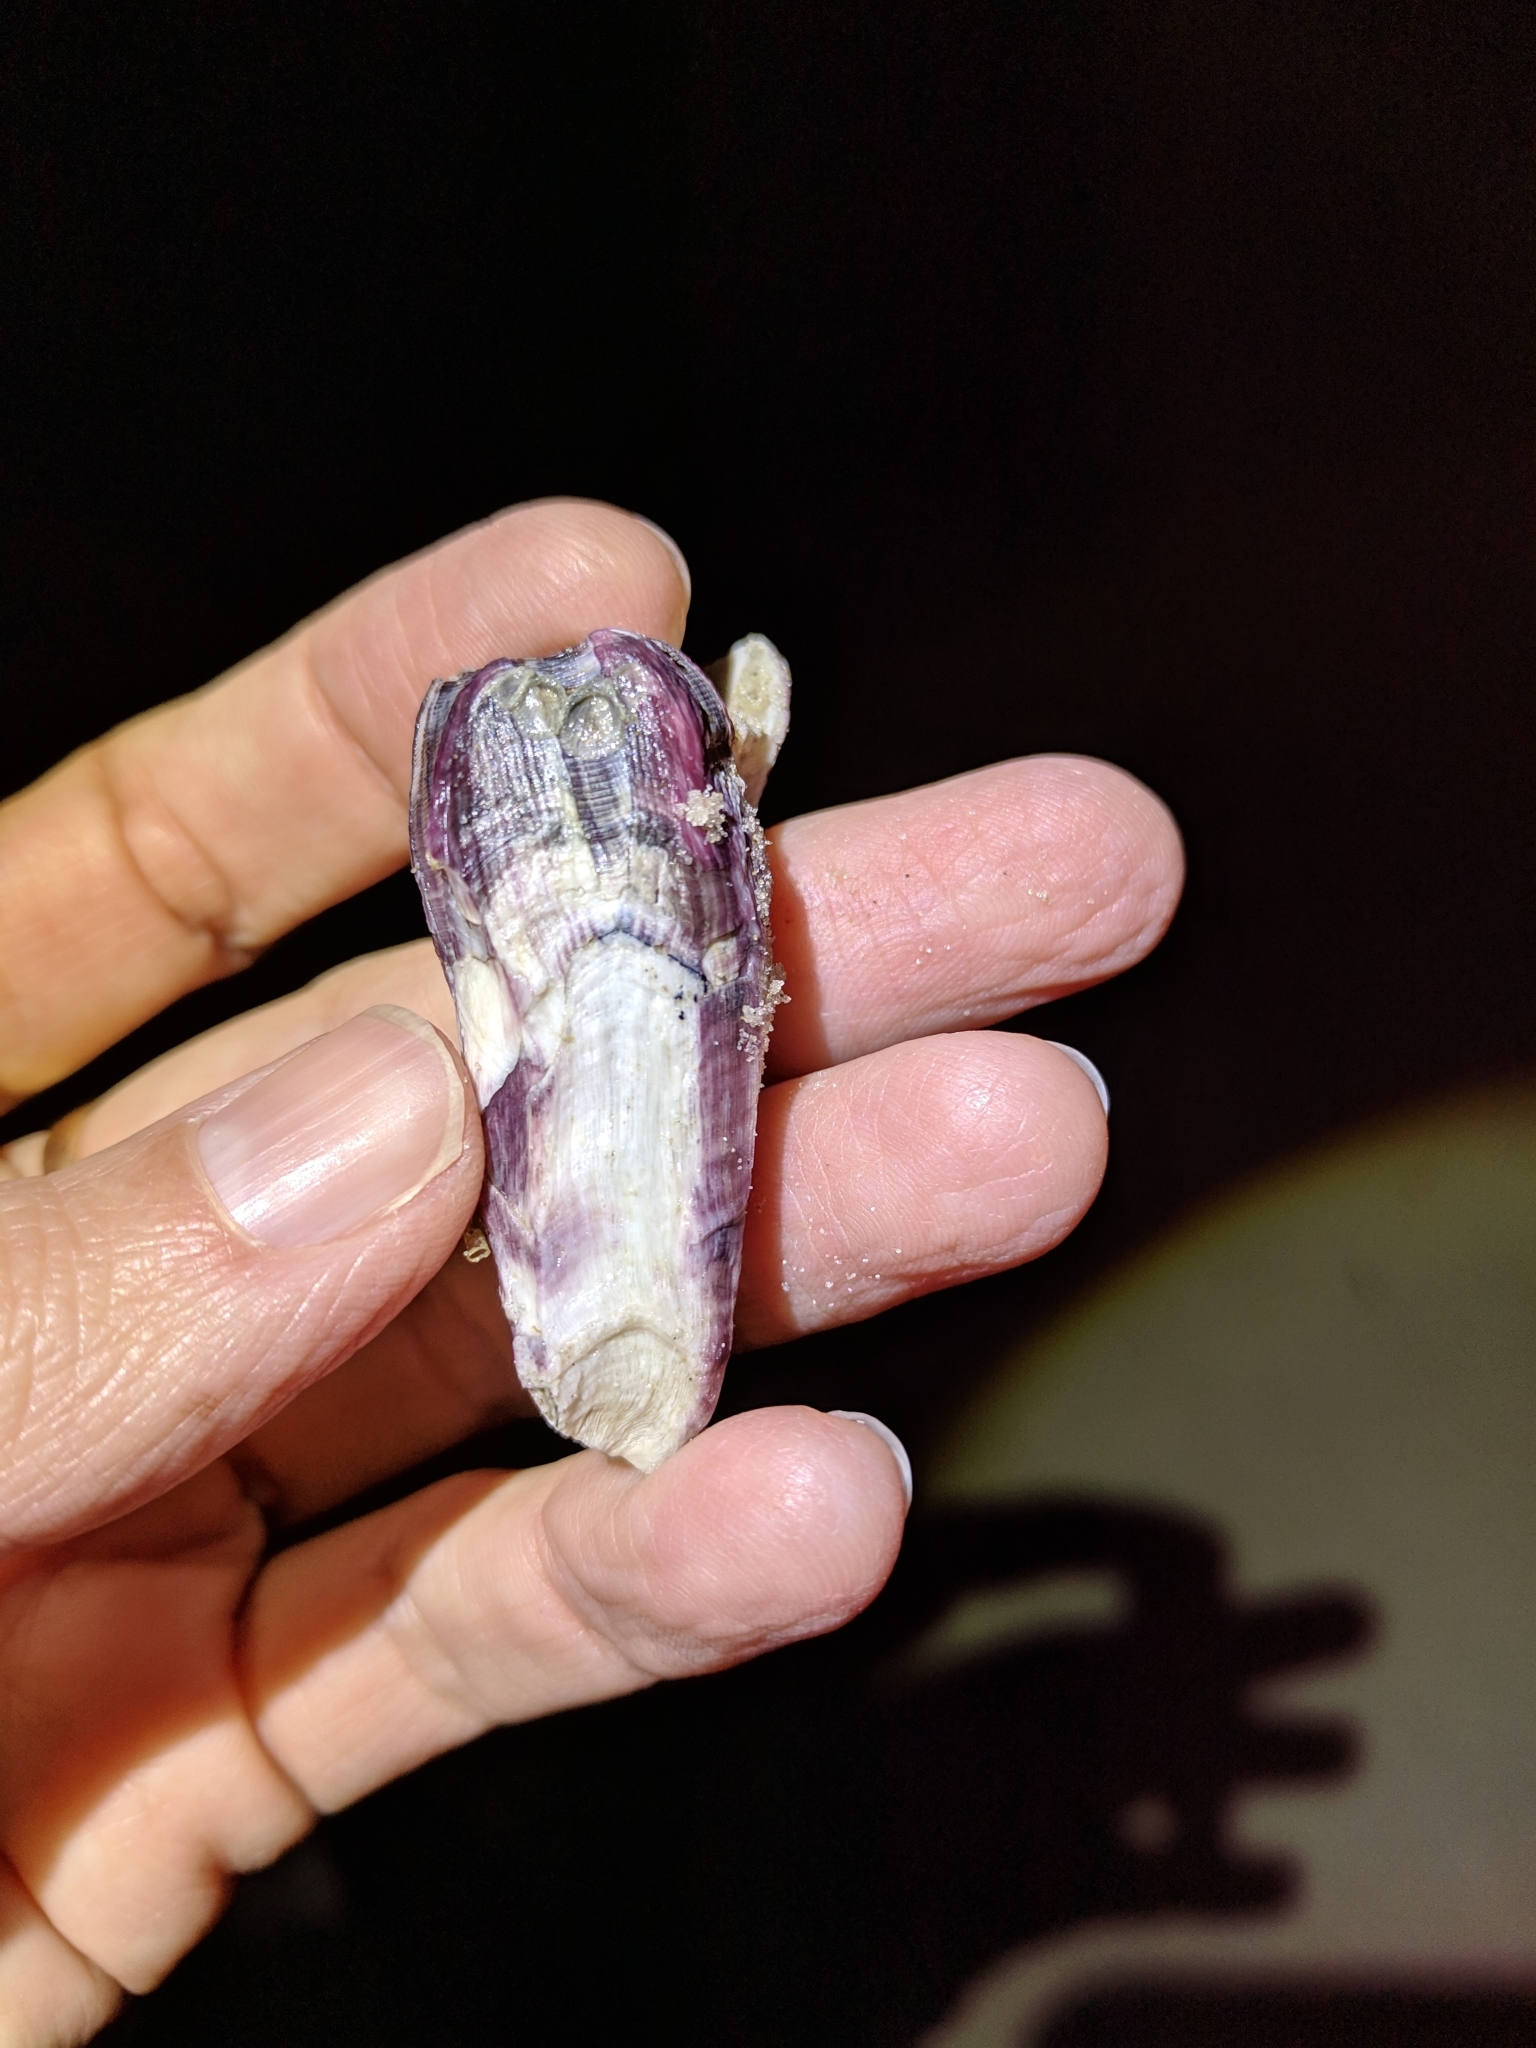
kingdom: Animalia
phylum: Arthropoda
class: Maxillopoda
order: Sessilia
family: Balanidae
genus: Megabalanus
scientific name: Megabalanus tintinnabulum
